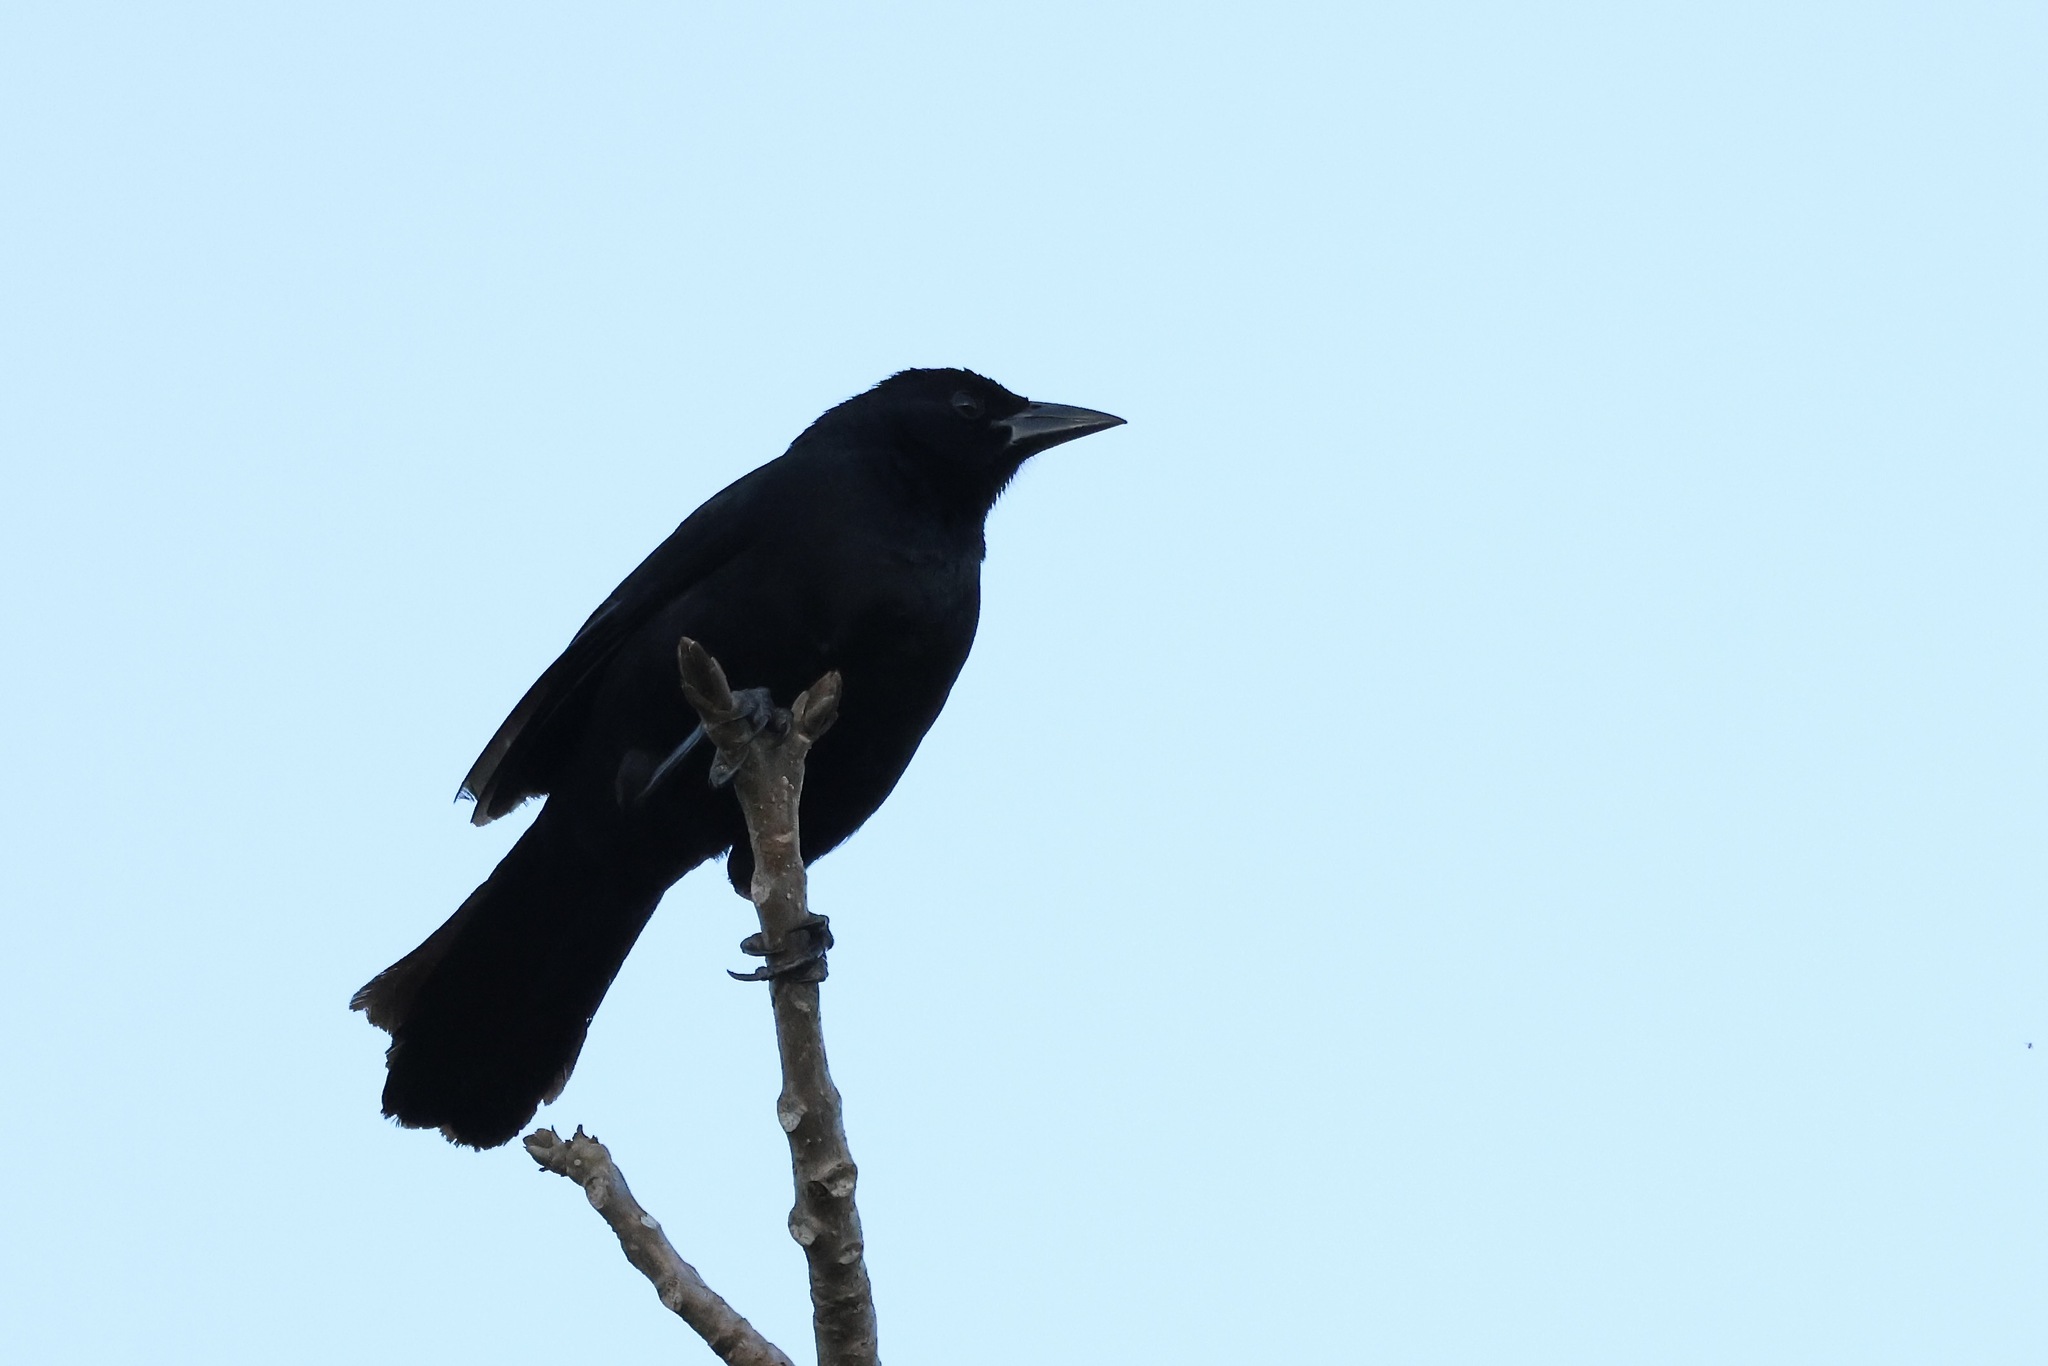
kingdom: Animalia
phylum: Chordata
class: Aves
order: Passeriformes
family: Icteridae
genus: Dives
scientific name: Dives dives
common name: Melodious blackbird
